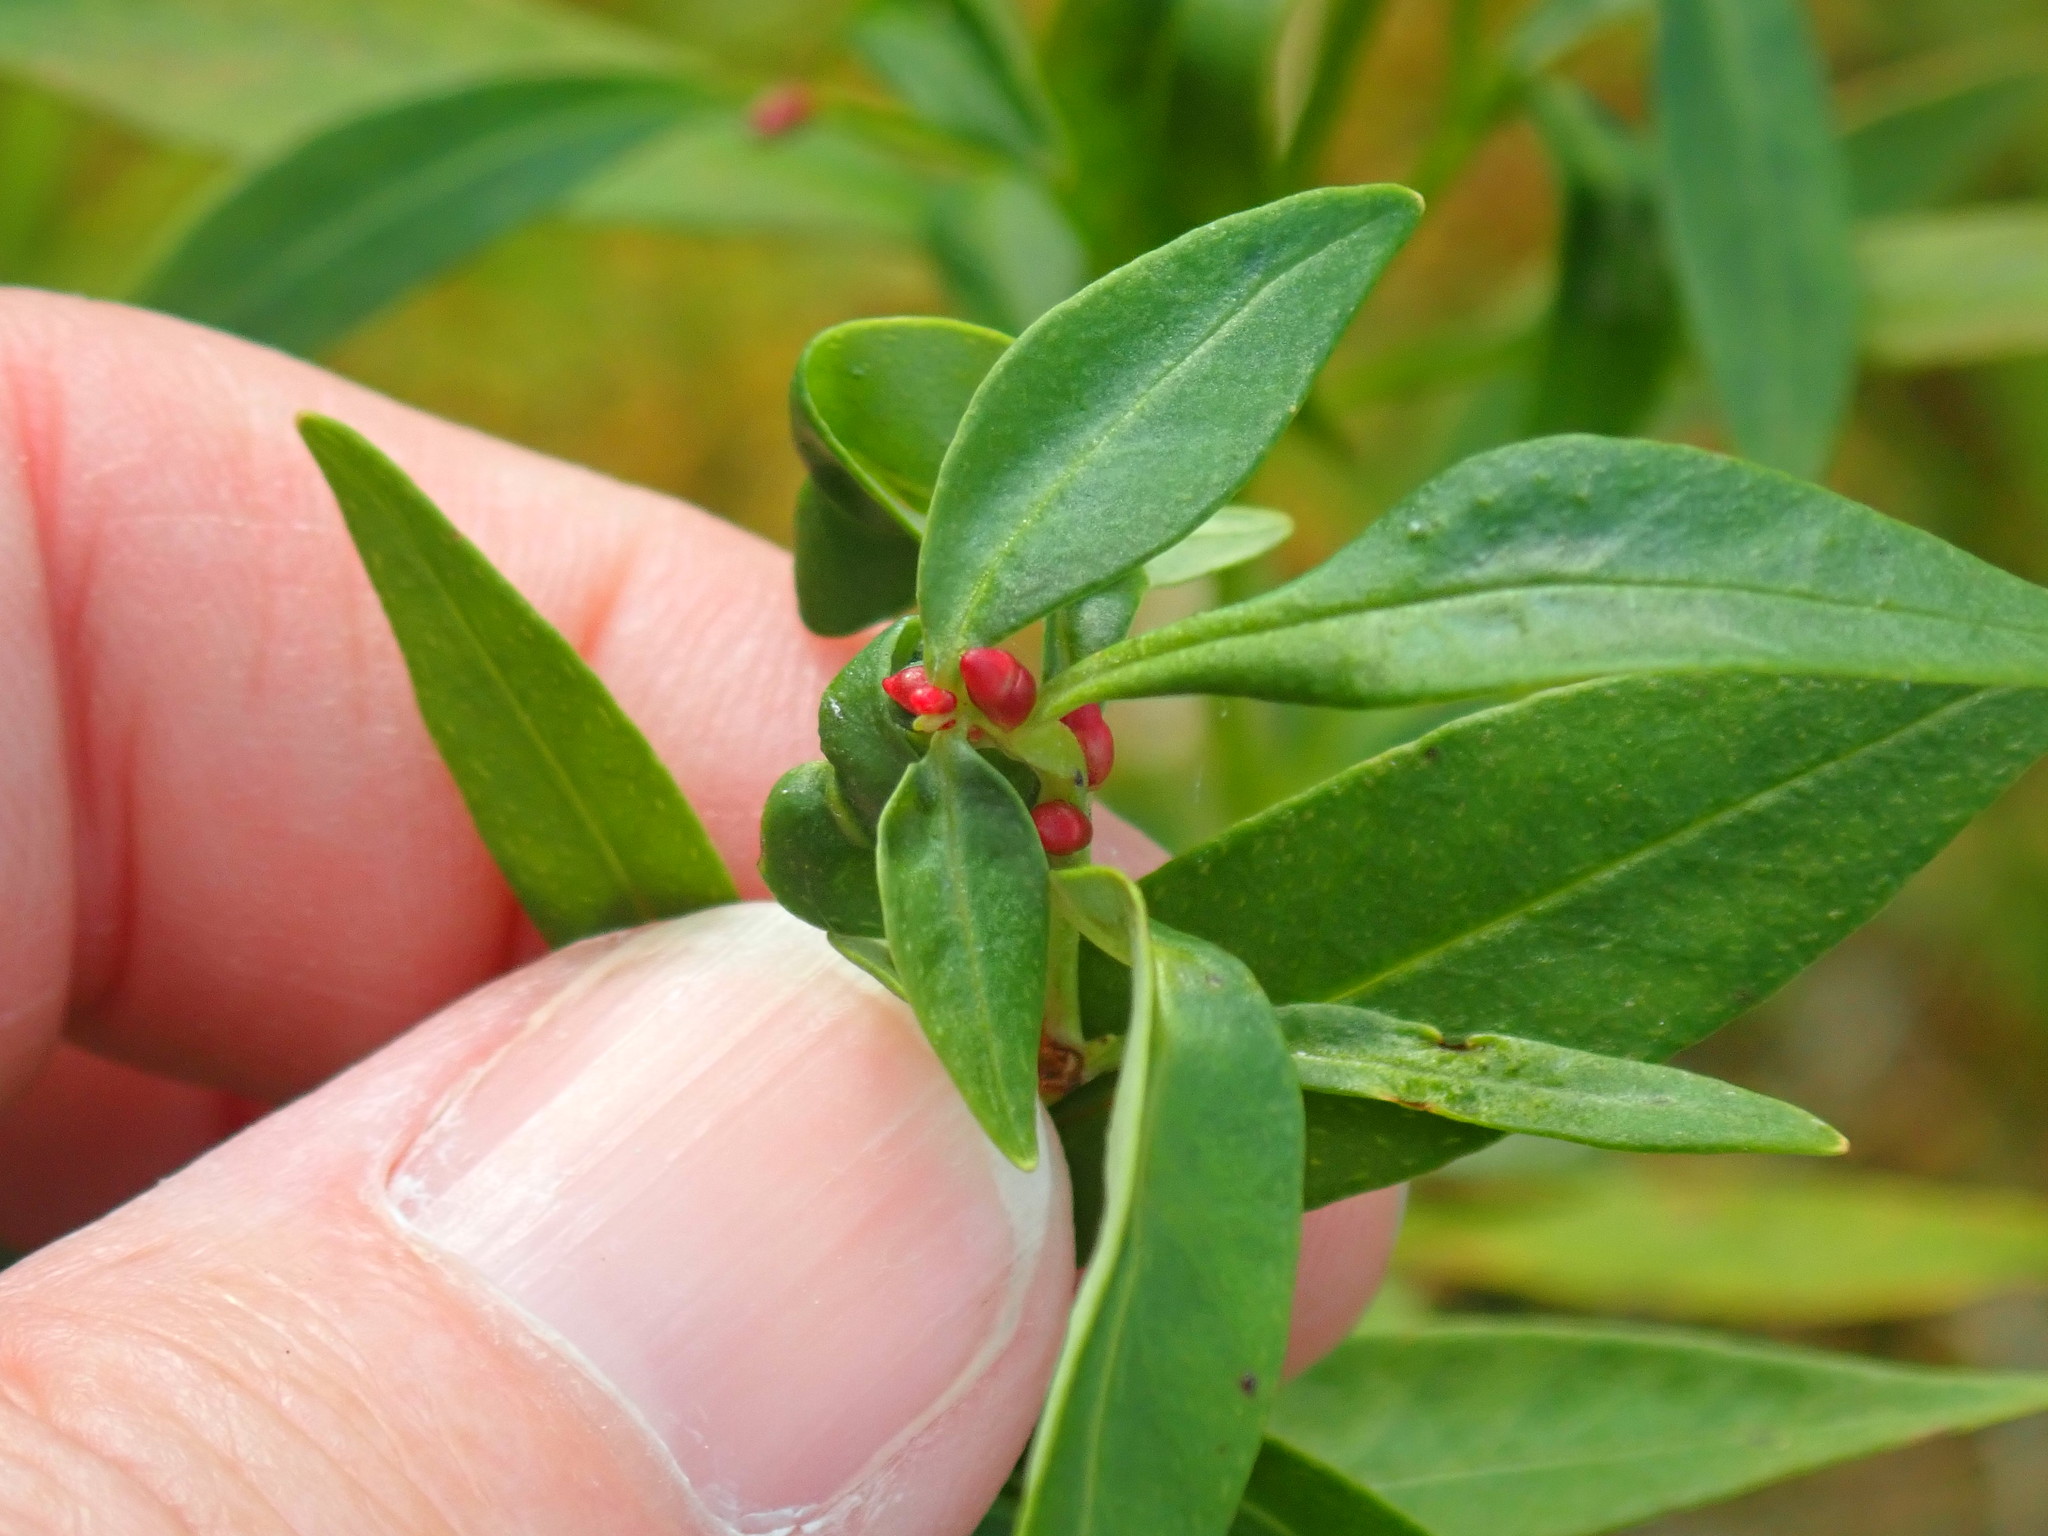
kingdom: Plantae
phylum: Tracheophyta
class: Magnoliopsida
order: Ericales
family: Primulaceae
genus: Lysimachia
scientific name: Lysimachia terrestris
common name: Lake loosestrife
